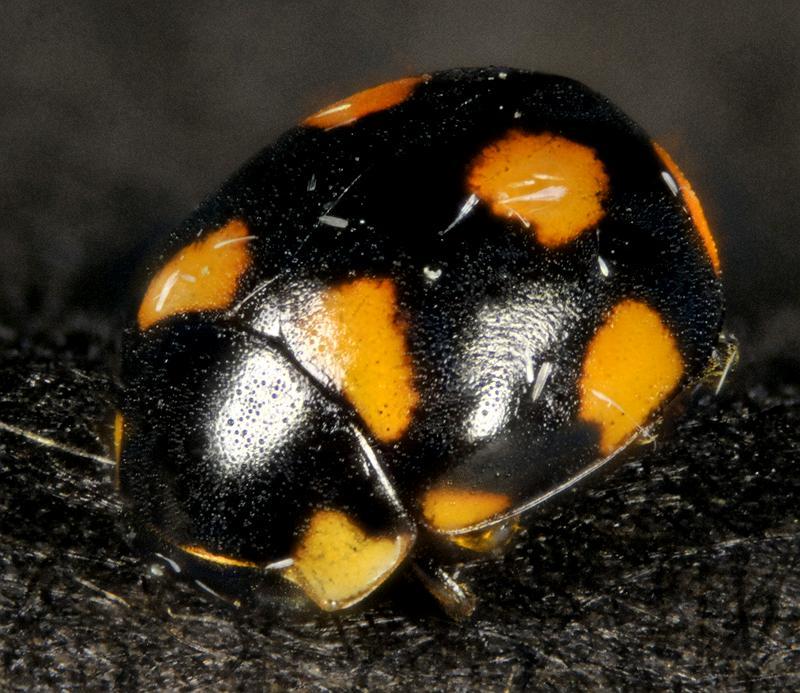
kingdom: Animalia
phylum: Arthropoda
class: Insecta
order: Coleoptera
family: Coccinellidae
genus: Brachiacantha
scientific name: Brachiacantha ursina
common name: Ursine spurleg lady beetle
